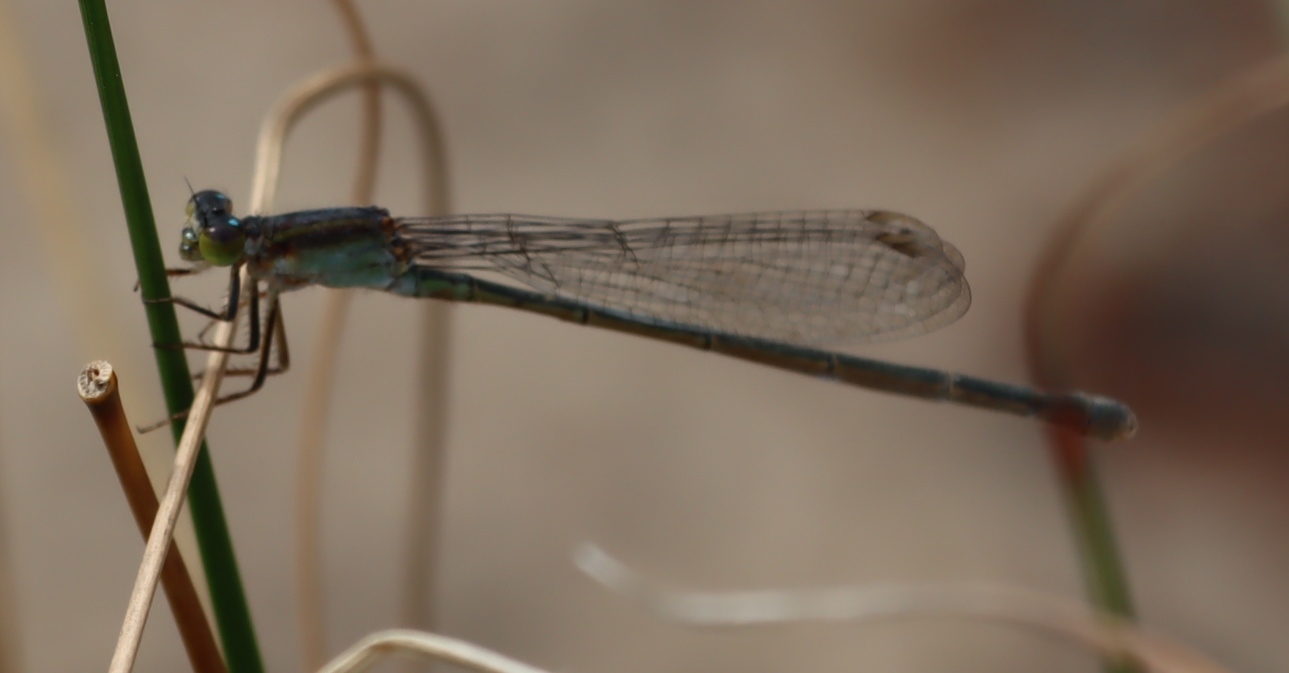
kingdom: Animalia
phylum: Arthropoda
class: Insecta
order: Odonata
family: Coenagrionidae
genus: Ischnura
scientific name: Ischnura senegalensis
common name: Tropical bluetail
